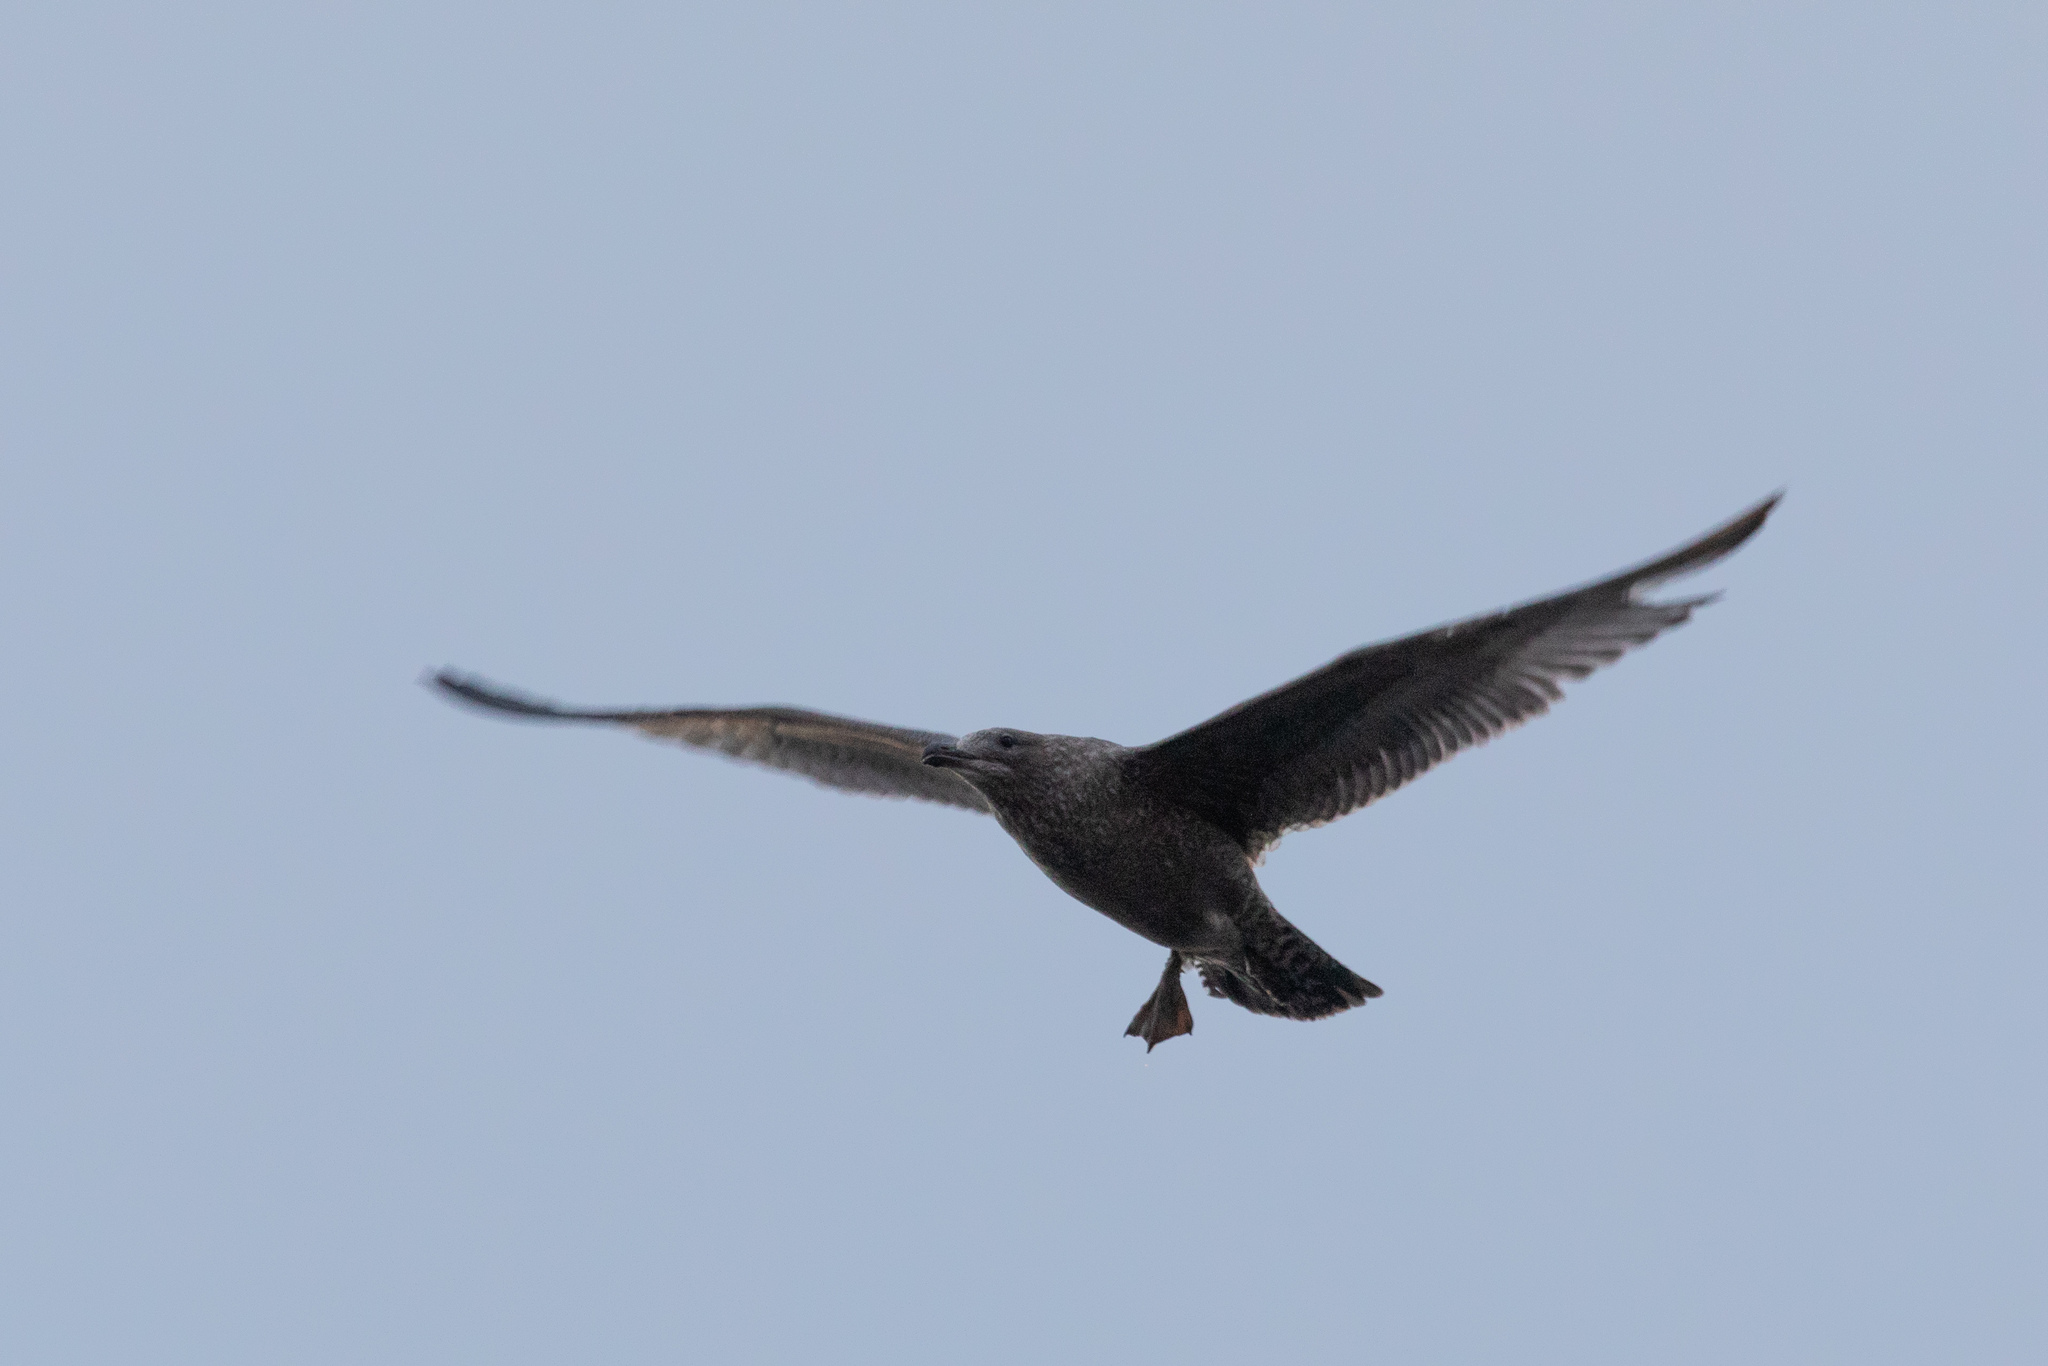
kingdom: Animalia
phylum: Chordata
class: Aves
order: Charadriiformes
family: Laridae
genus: Larus
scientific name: Larus argentatus
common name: Herring gull
